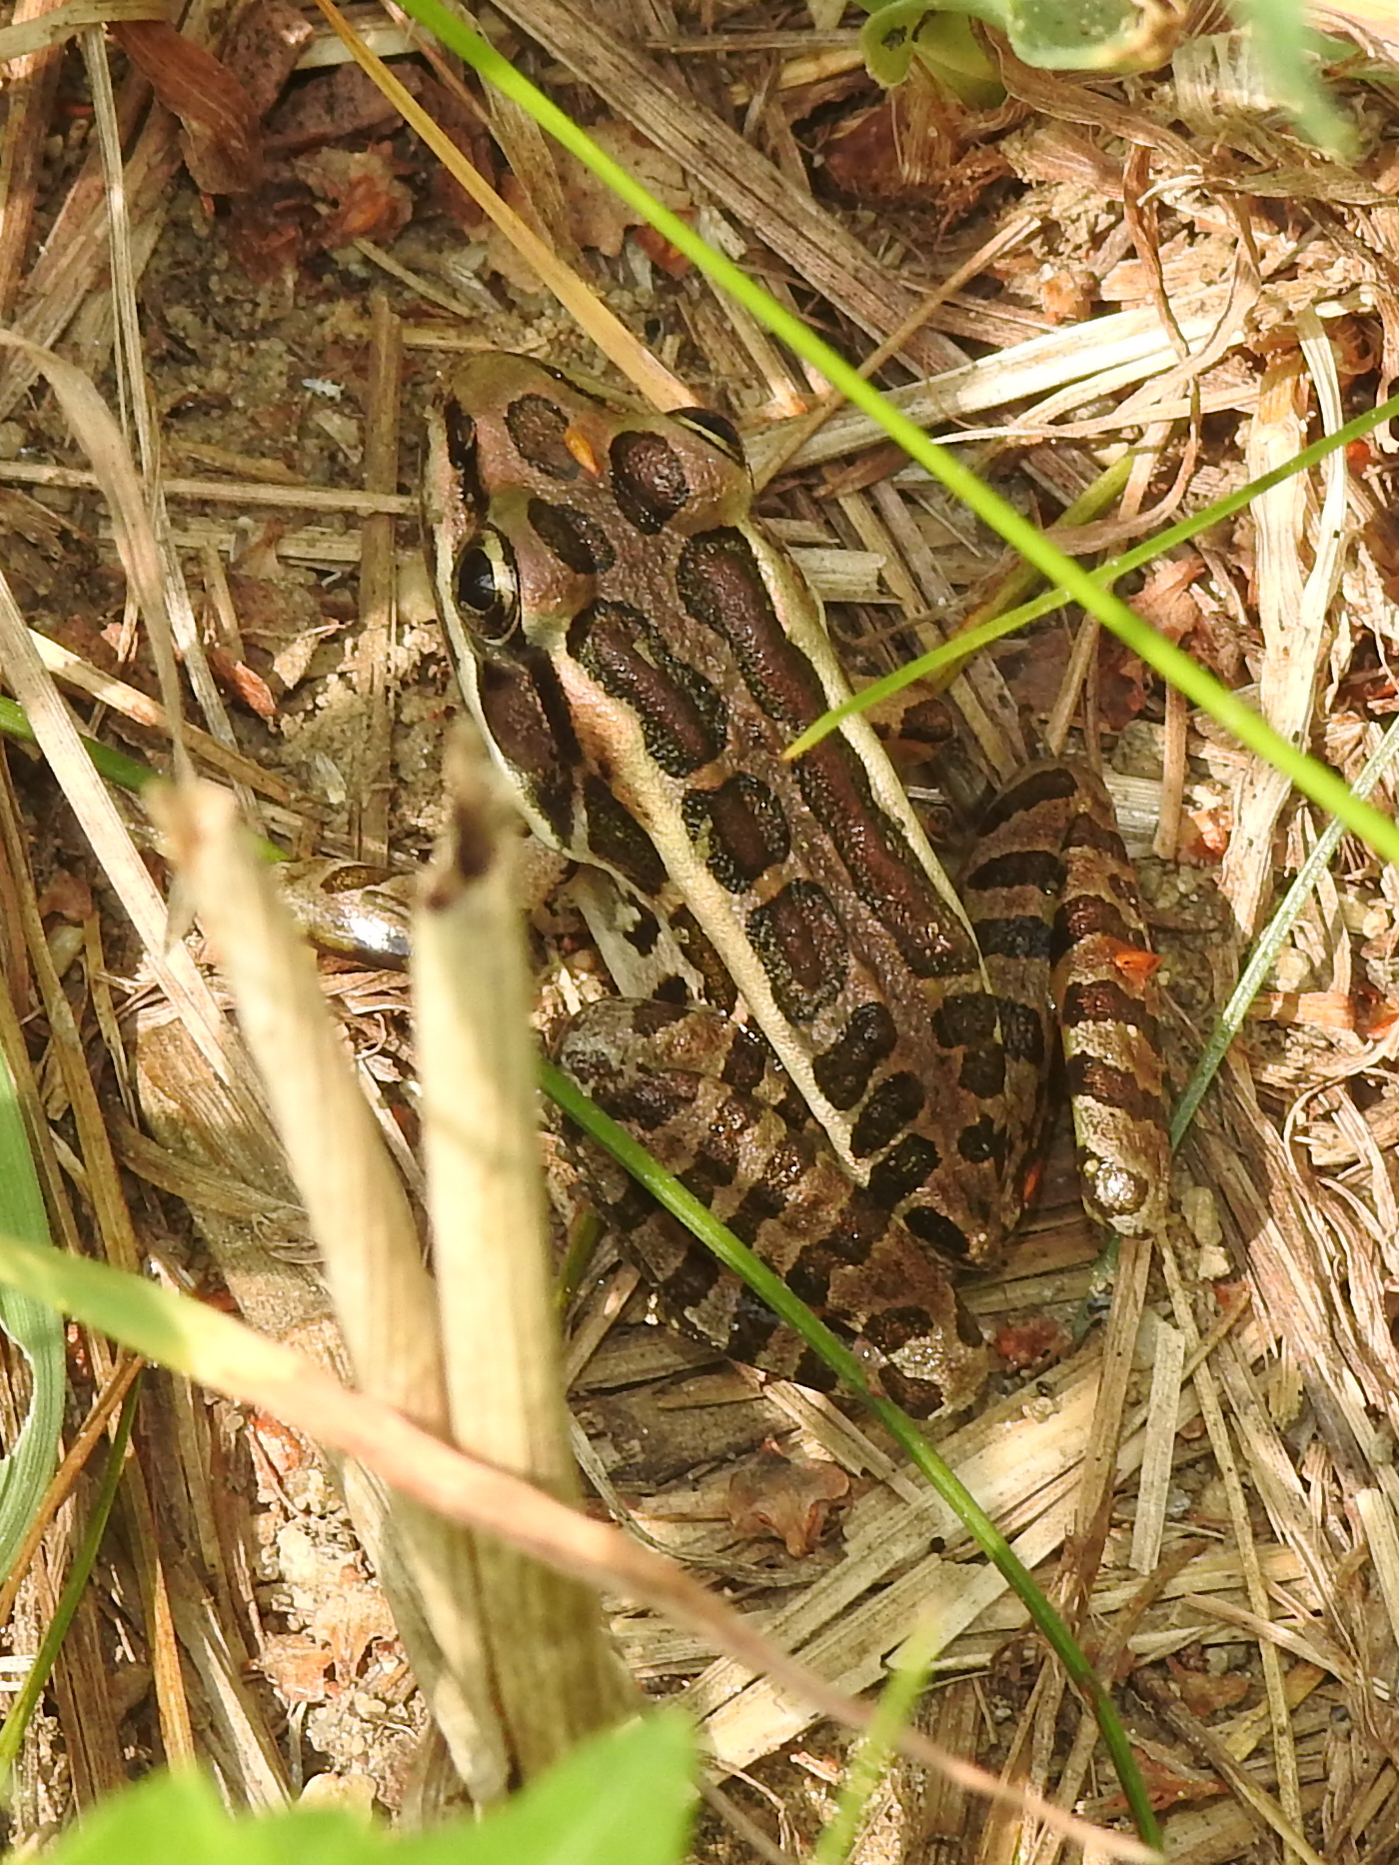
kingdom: Animalia
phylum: Chordata
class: Amphibia
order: Anura
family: Ranidae
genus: Lithobates
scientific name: Lithobates palustris
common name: Pickerel frog
